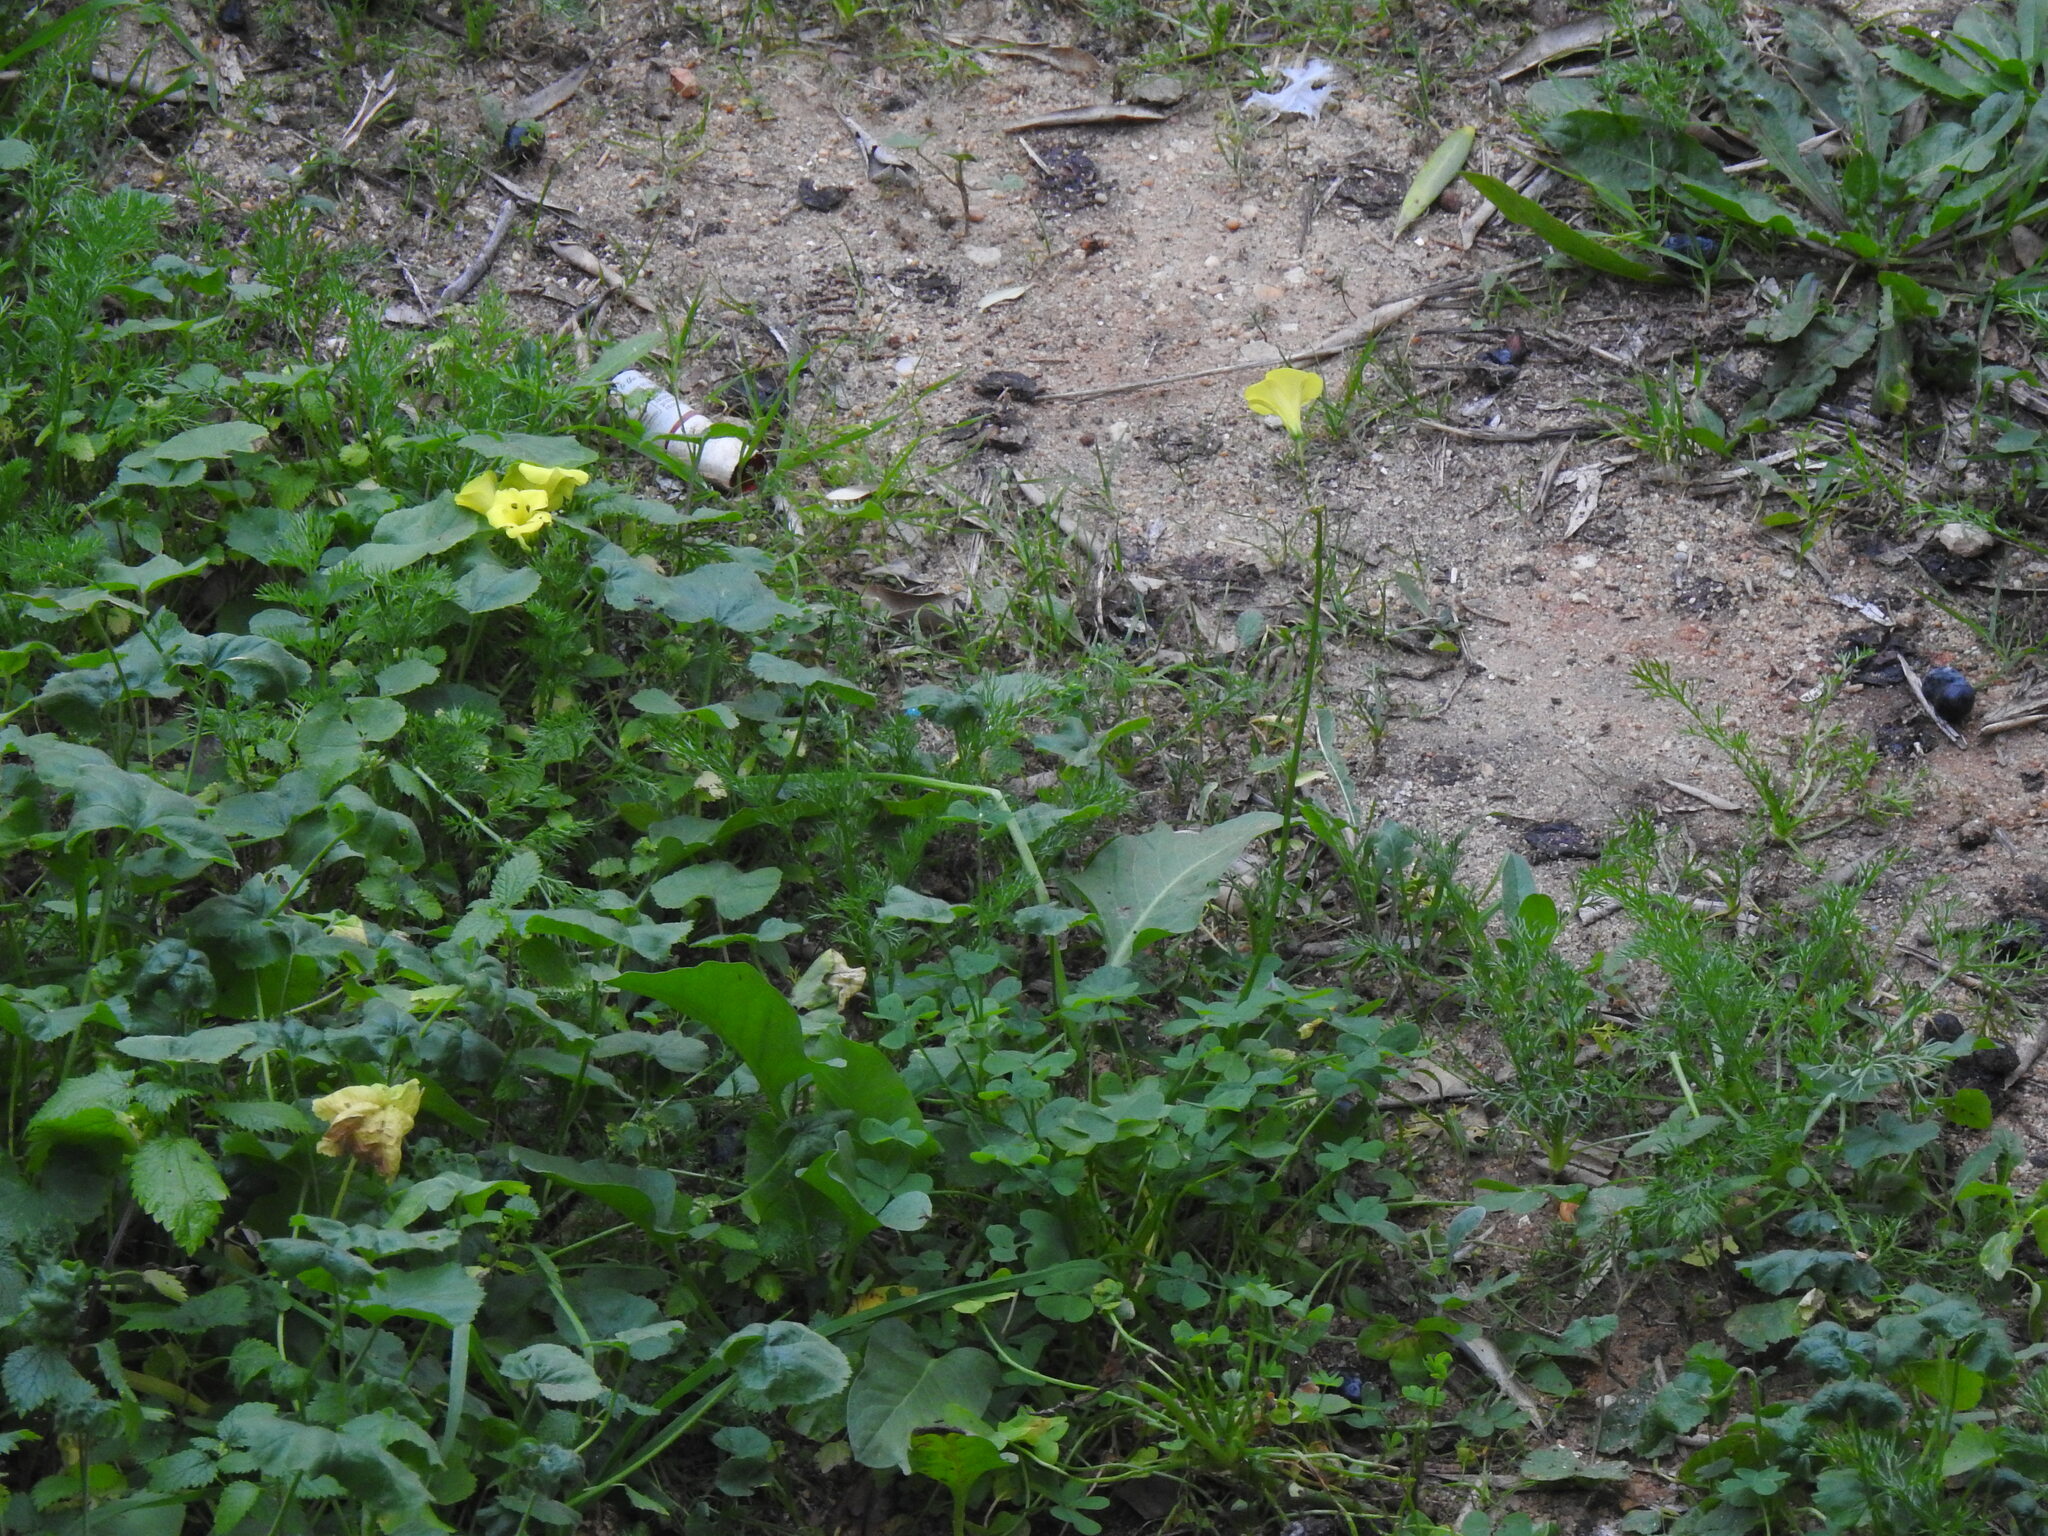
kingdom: Plantae
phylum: Tracheophyta
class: Magnoliopsida
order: Oxalidales
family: Oxalidaceae
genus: Oxalis
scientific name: Oxalis pes-caprae
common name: Bermuda-buttercup
